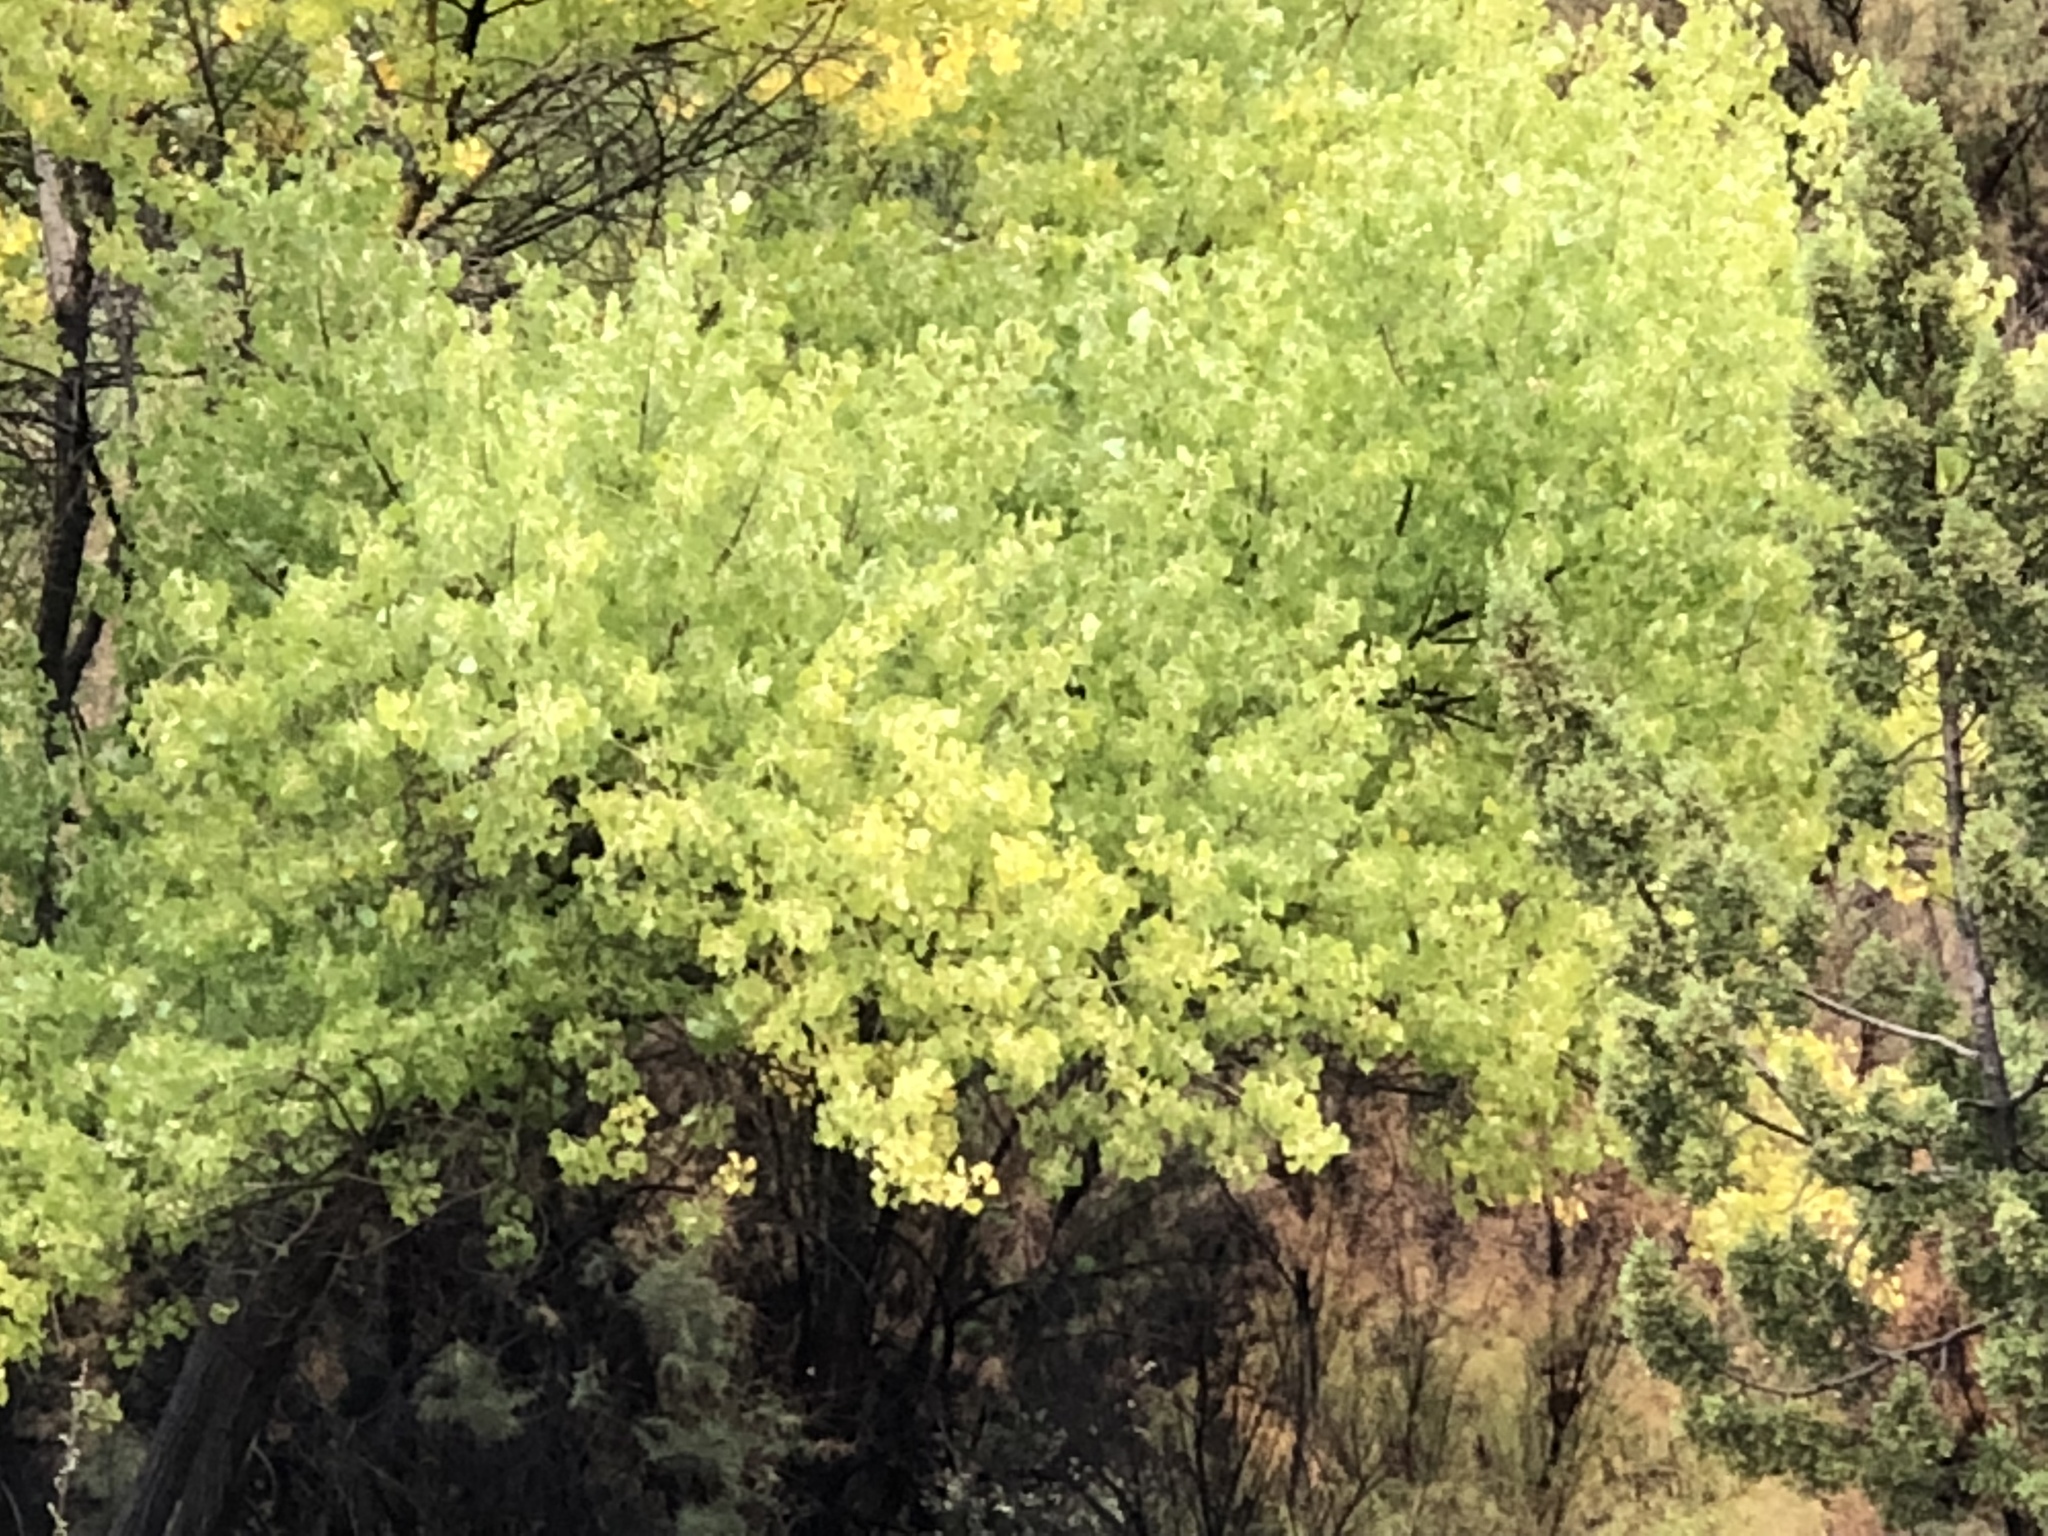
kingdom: Plantae
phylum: Tracheophyta
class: Magnoliopsida
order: Malpighiales
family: Salicaceae
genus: Populus
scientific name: Populus fremontii
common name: Fremont's cottonwood
